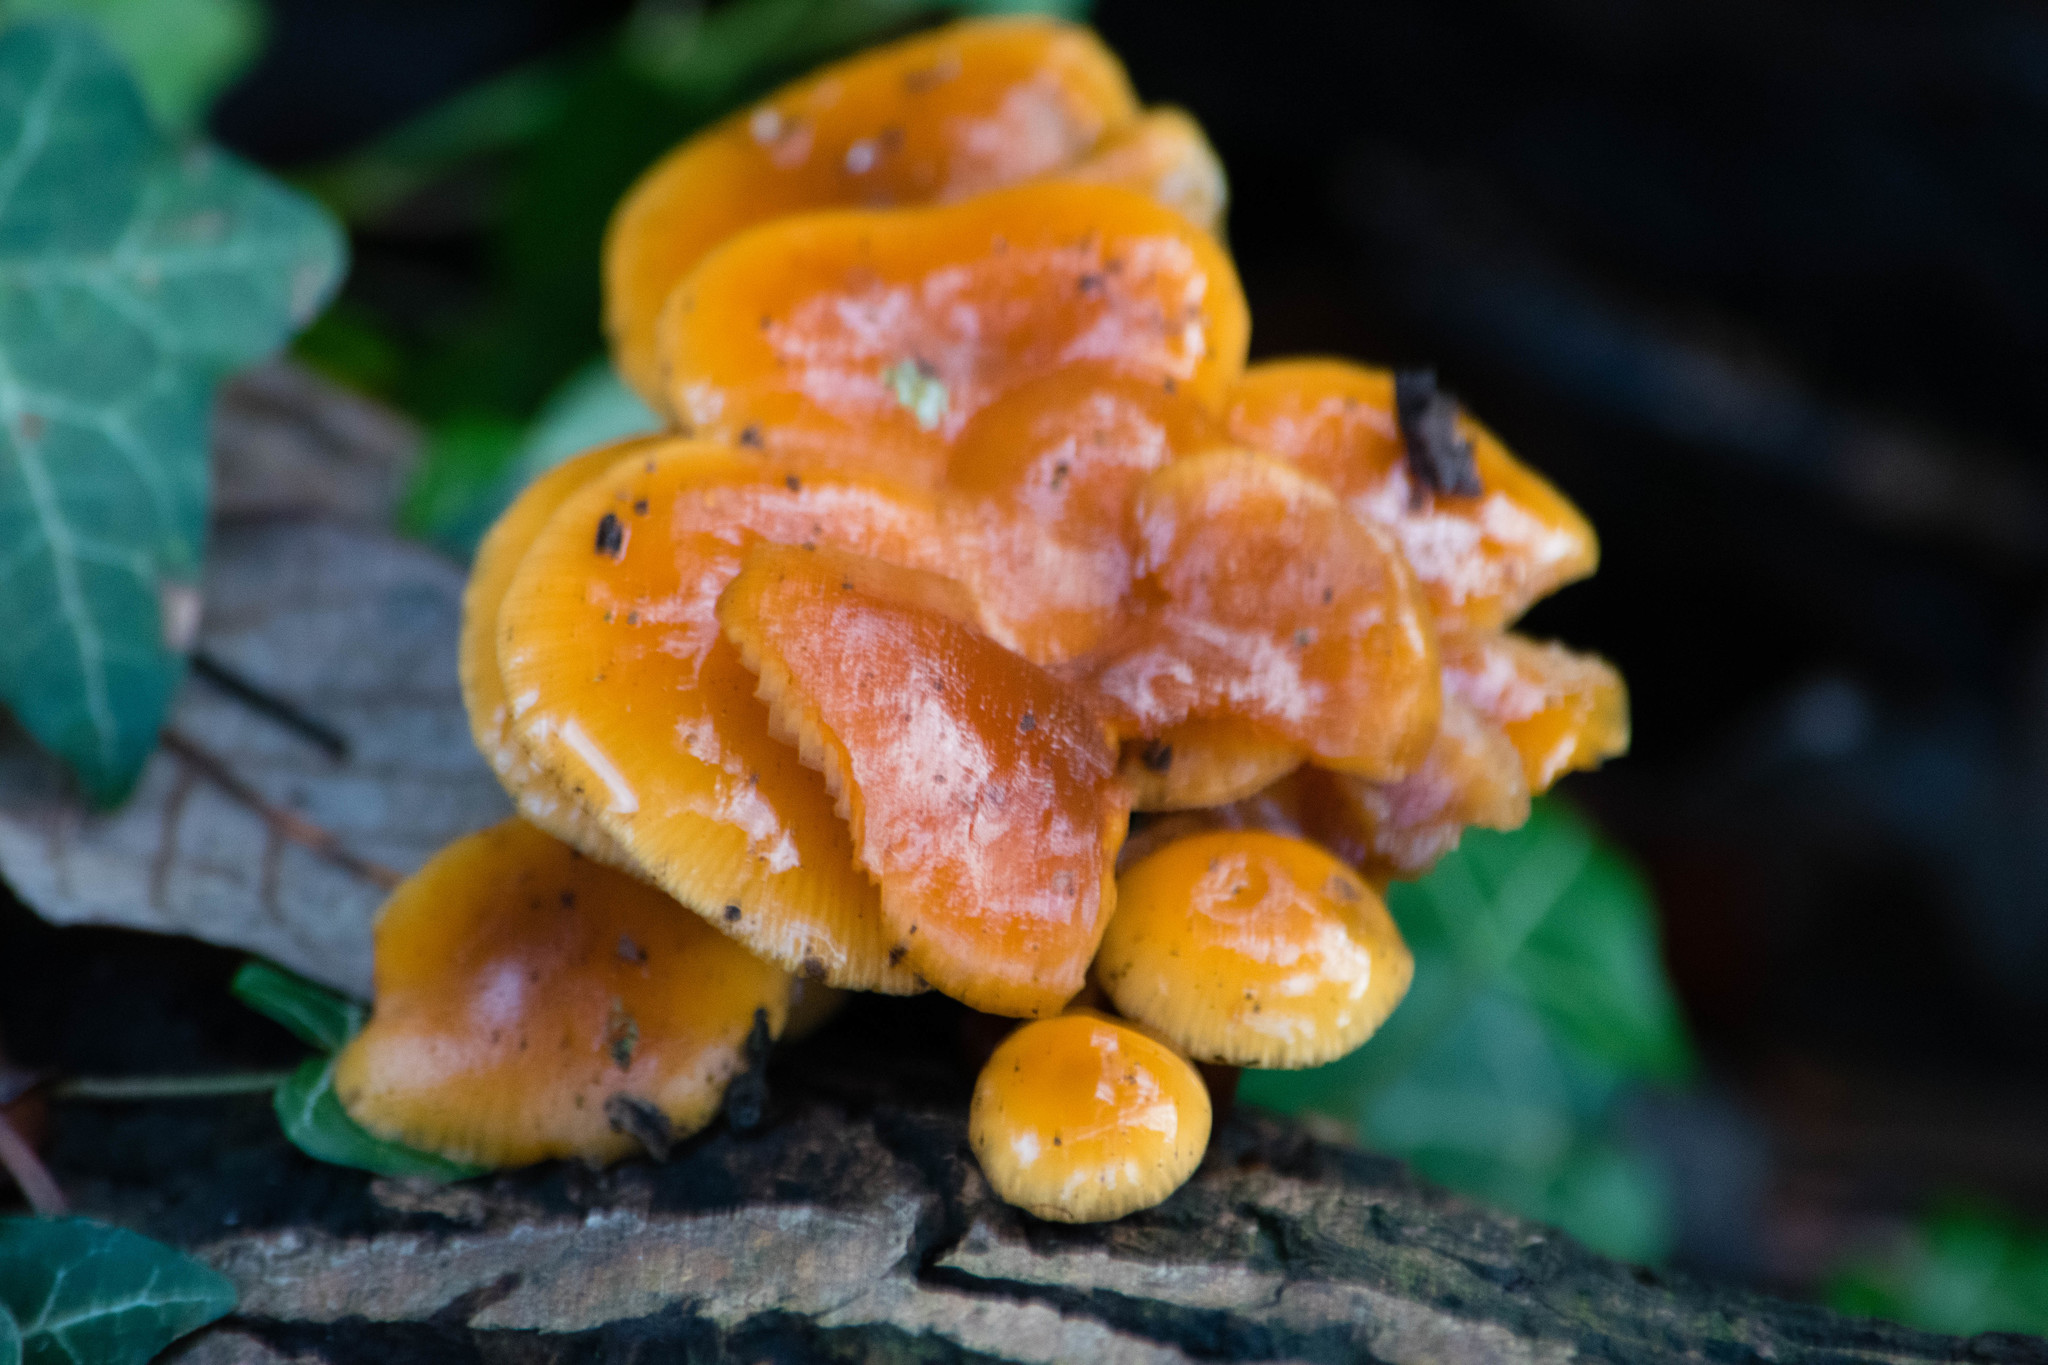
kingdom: Fungi
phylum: Basidiomycota
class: Agaricomycetes
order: Agaricales
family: Physalacriaceae
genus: Flammulina
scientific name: Flammulina
